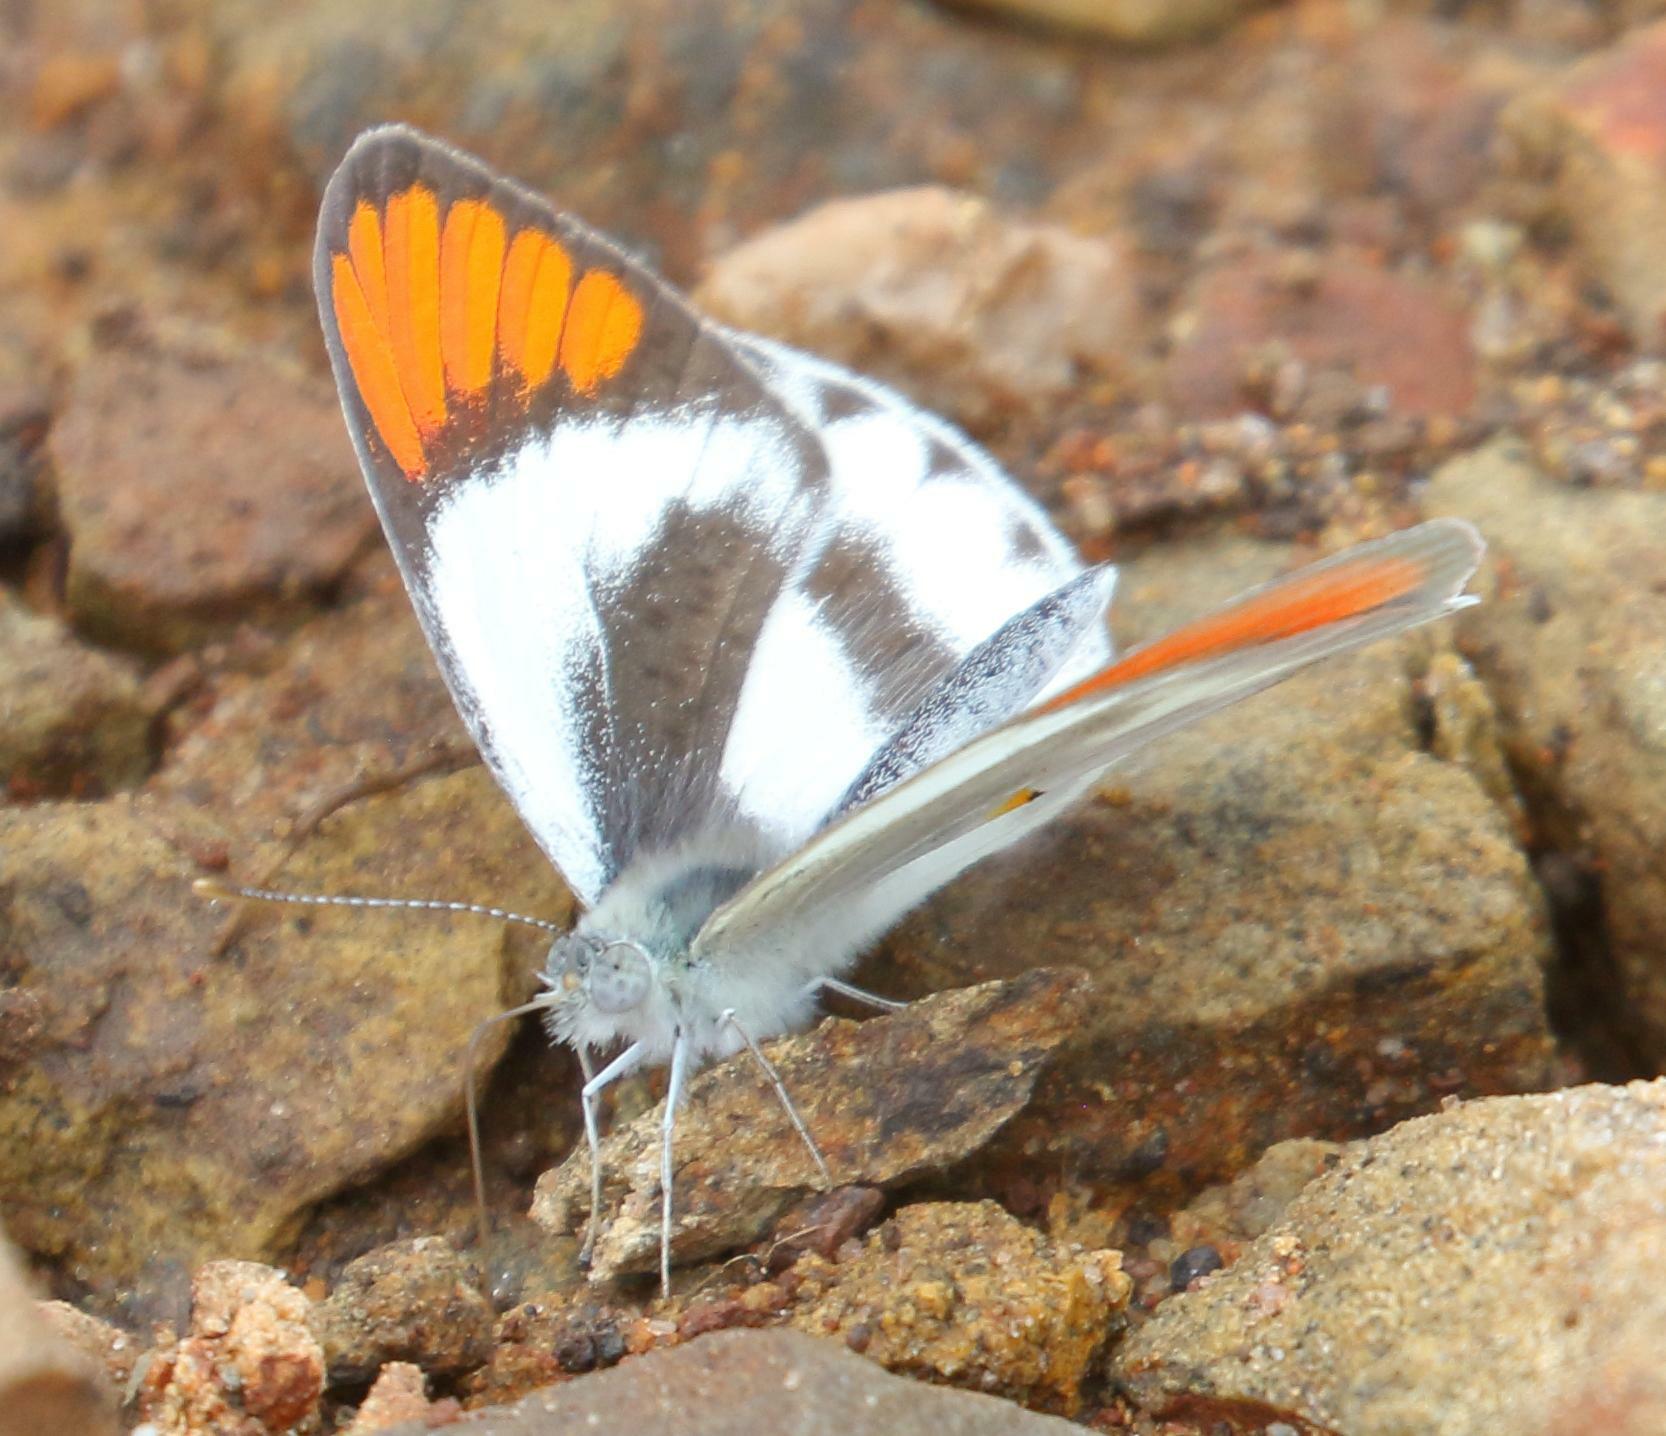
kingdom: Animalia
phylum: Arthropoda
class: Insecta
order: Lepidoptera
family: Pieridae
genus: Colotis
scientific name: Colotis euippe
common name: Round-winged orange tip
